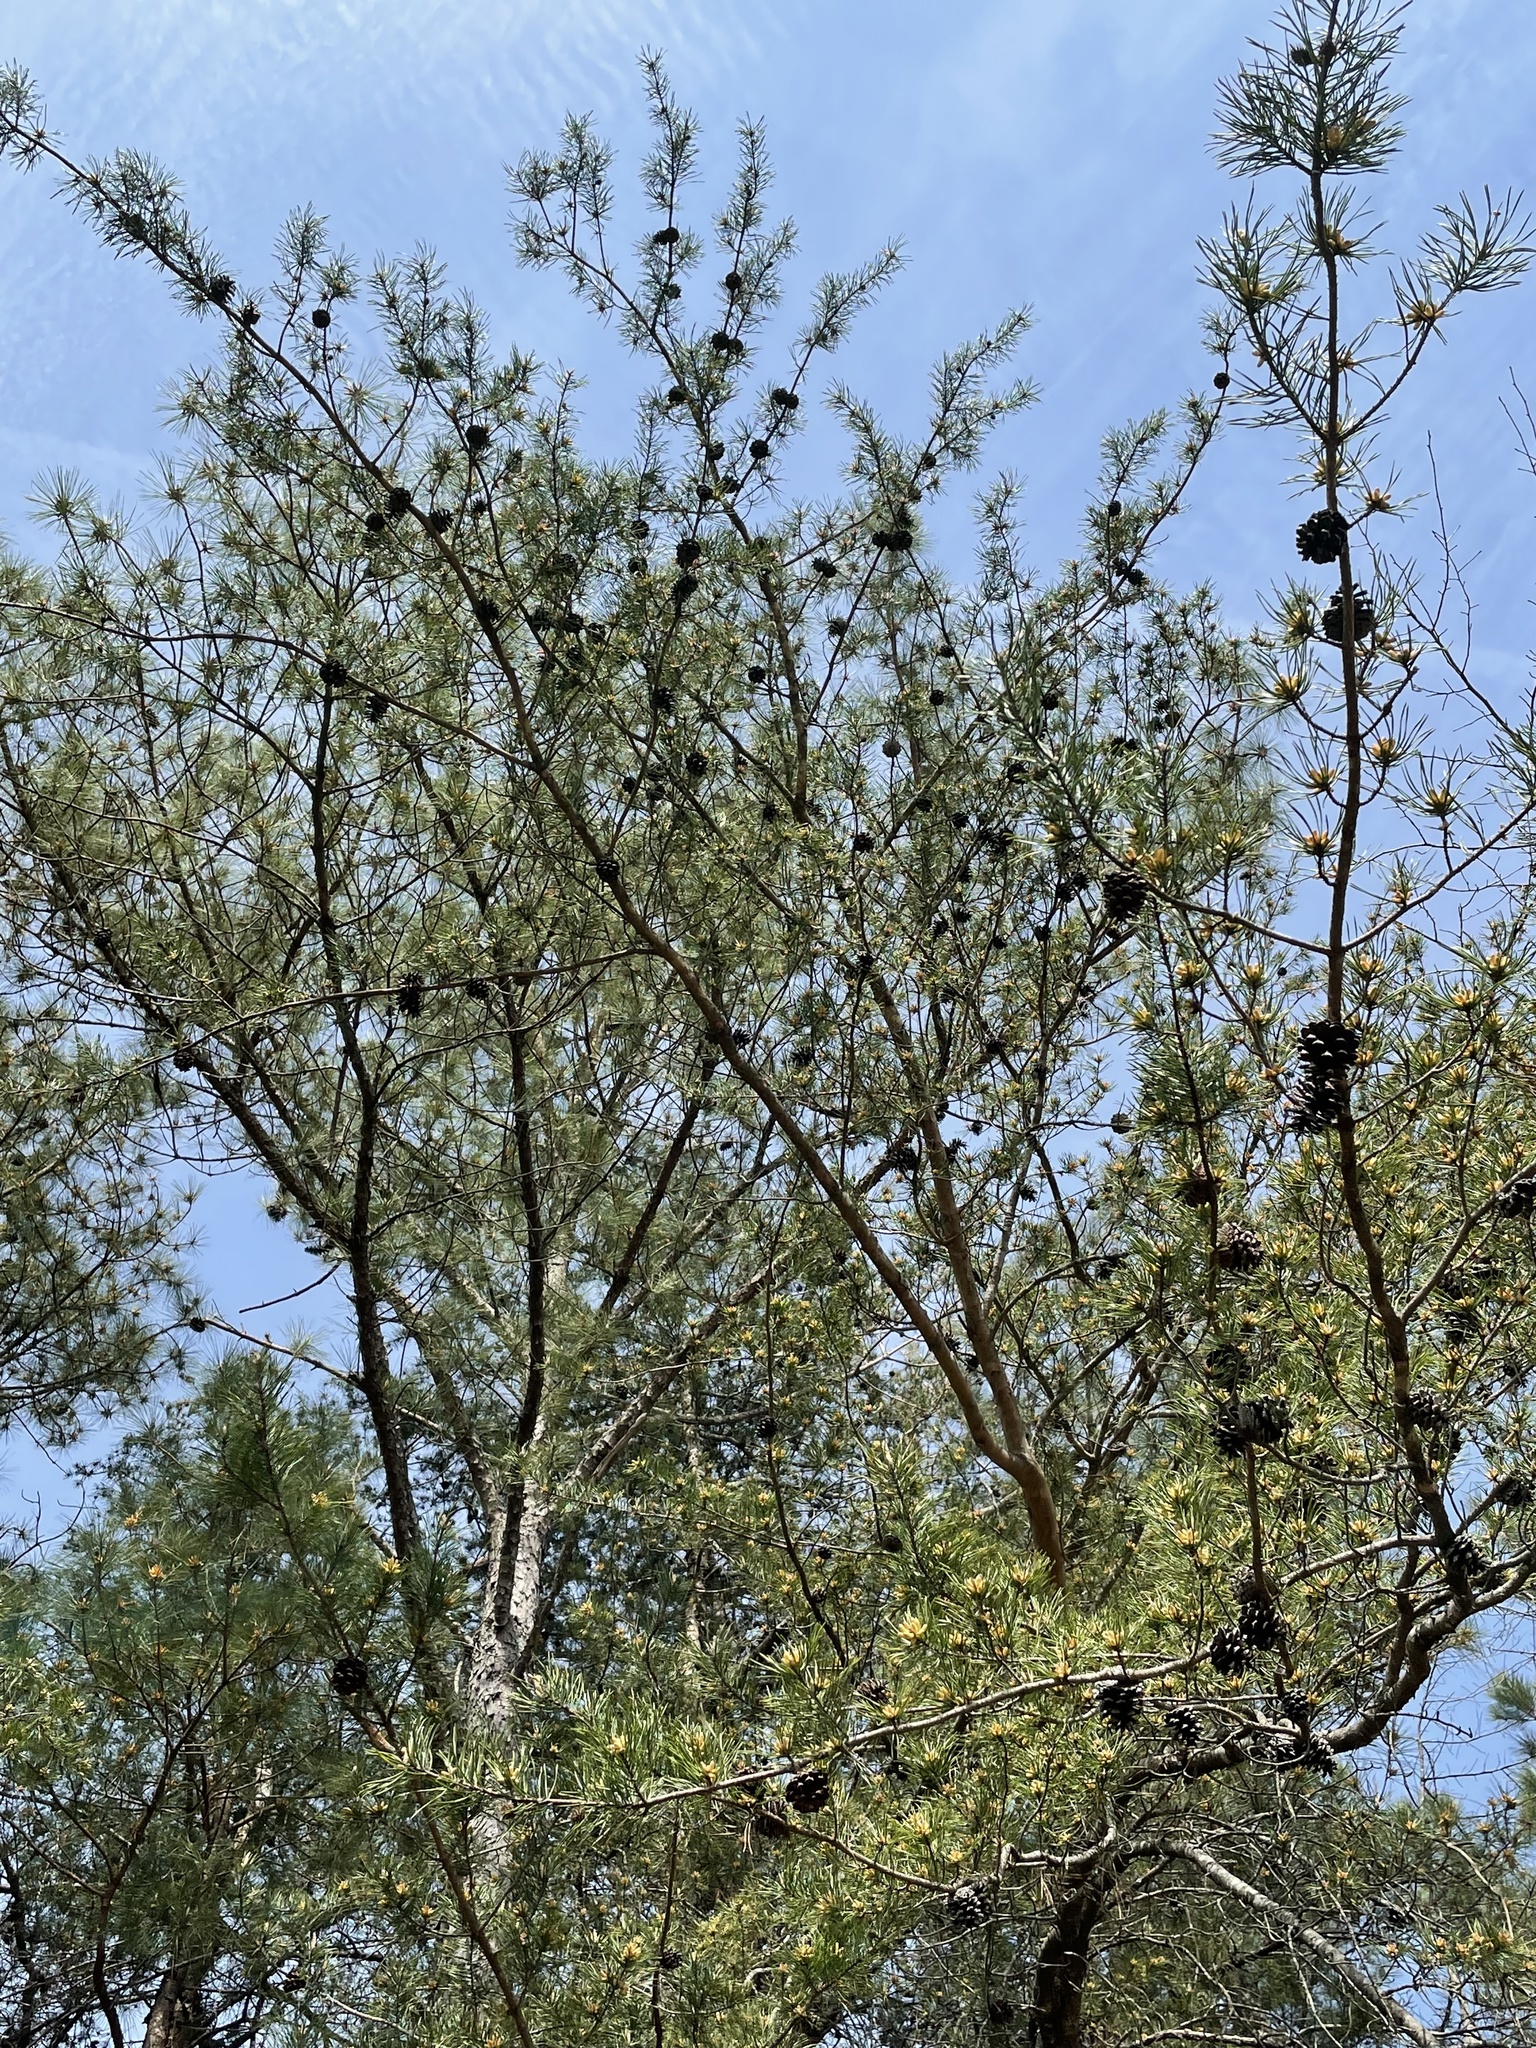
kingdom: Plantae
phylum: Tracheophyta
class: Pinopsida
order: Pinales
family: Pinaceae
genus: Pinus
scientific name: Pinus virginiana
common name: Scrub pine
